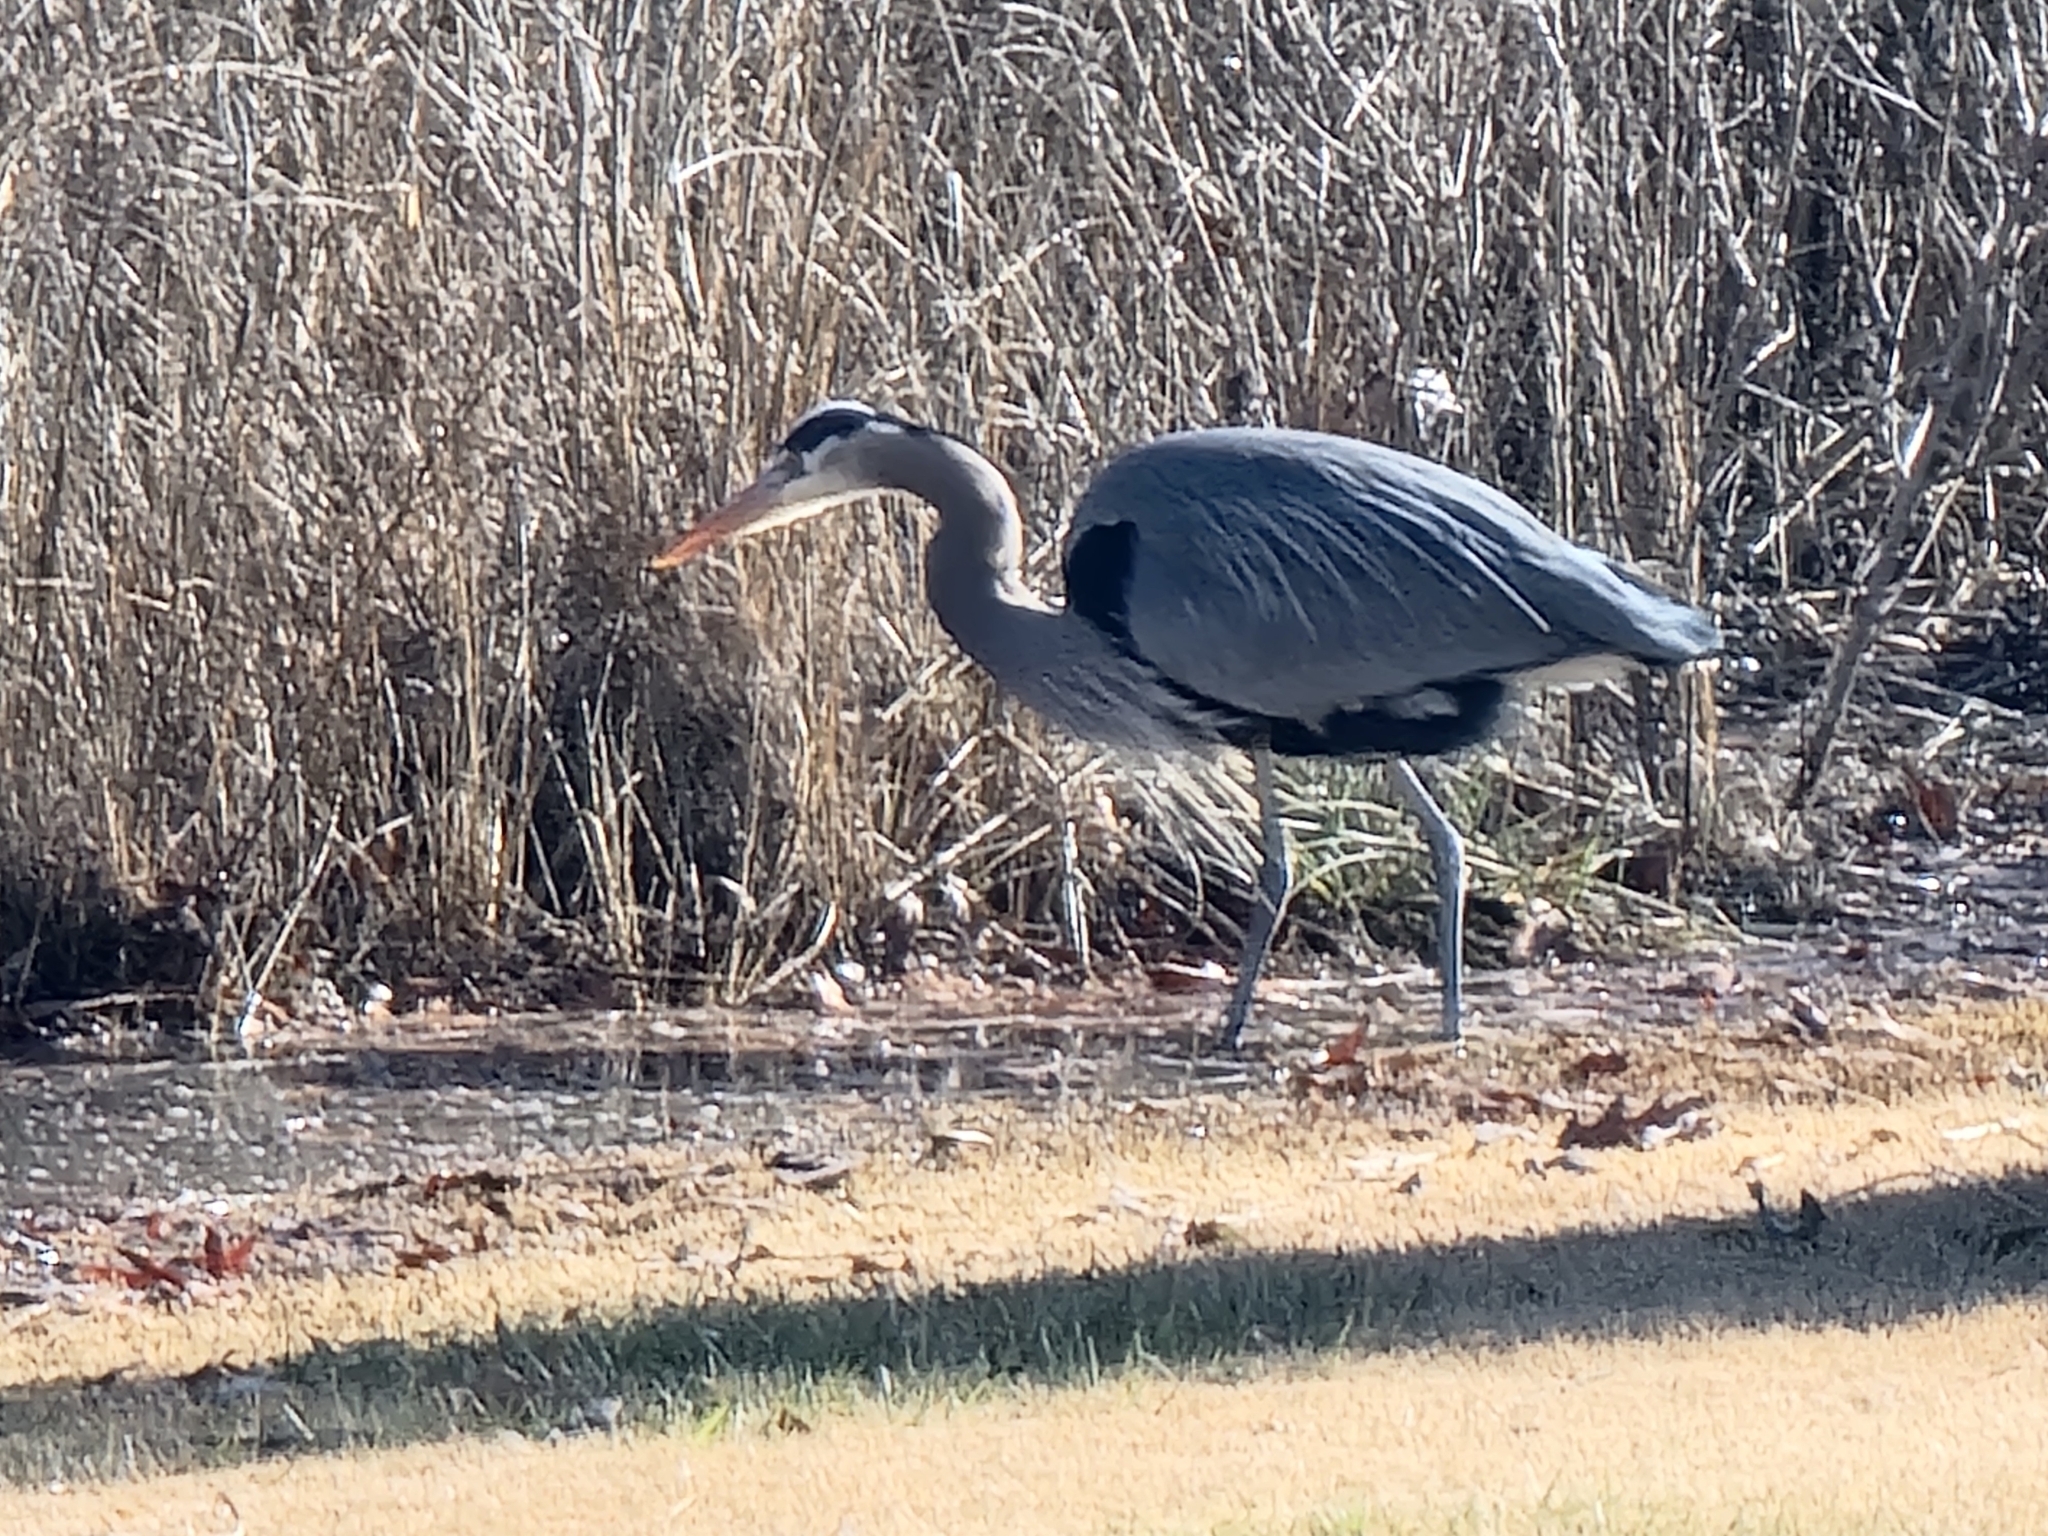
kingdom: Animalia
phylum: Chordata
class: Aves
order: Pelecaniformes
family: Ardeidae
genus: Ardea
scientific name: Ardea herodias
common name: Great blue heron
